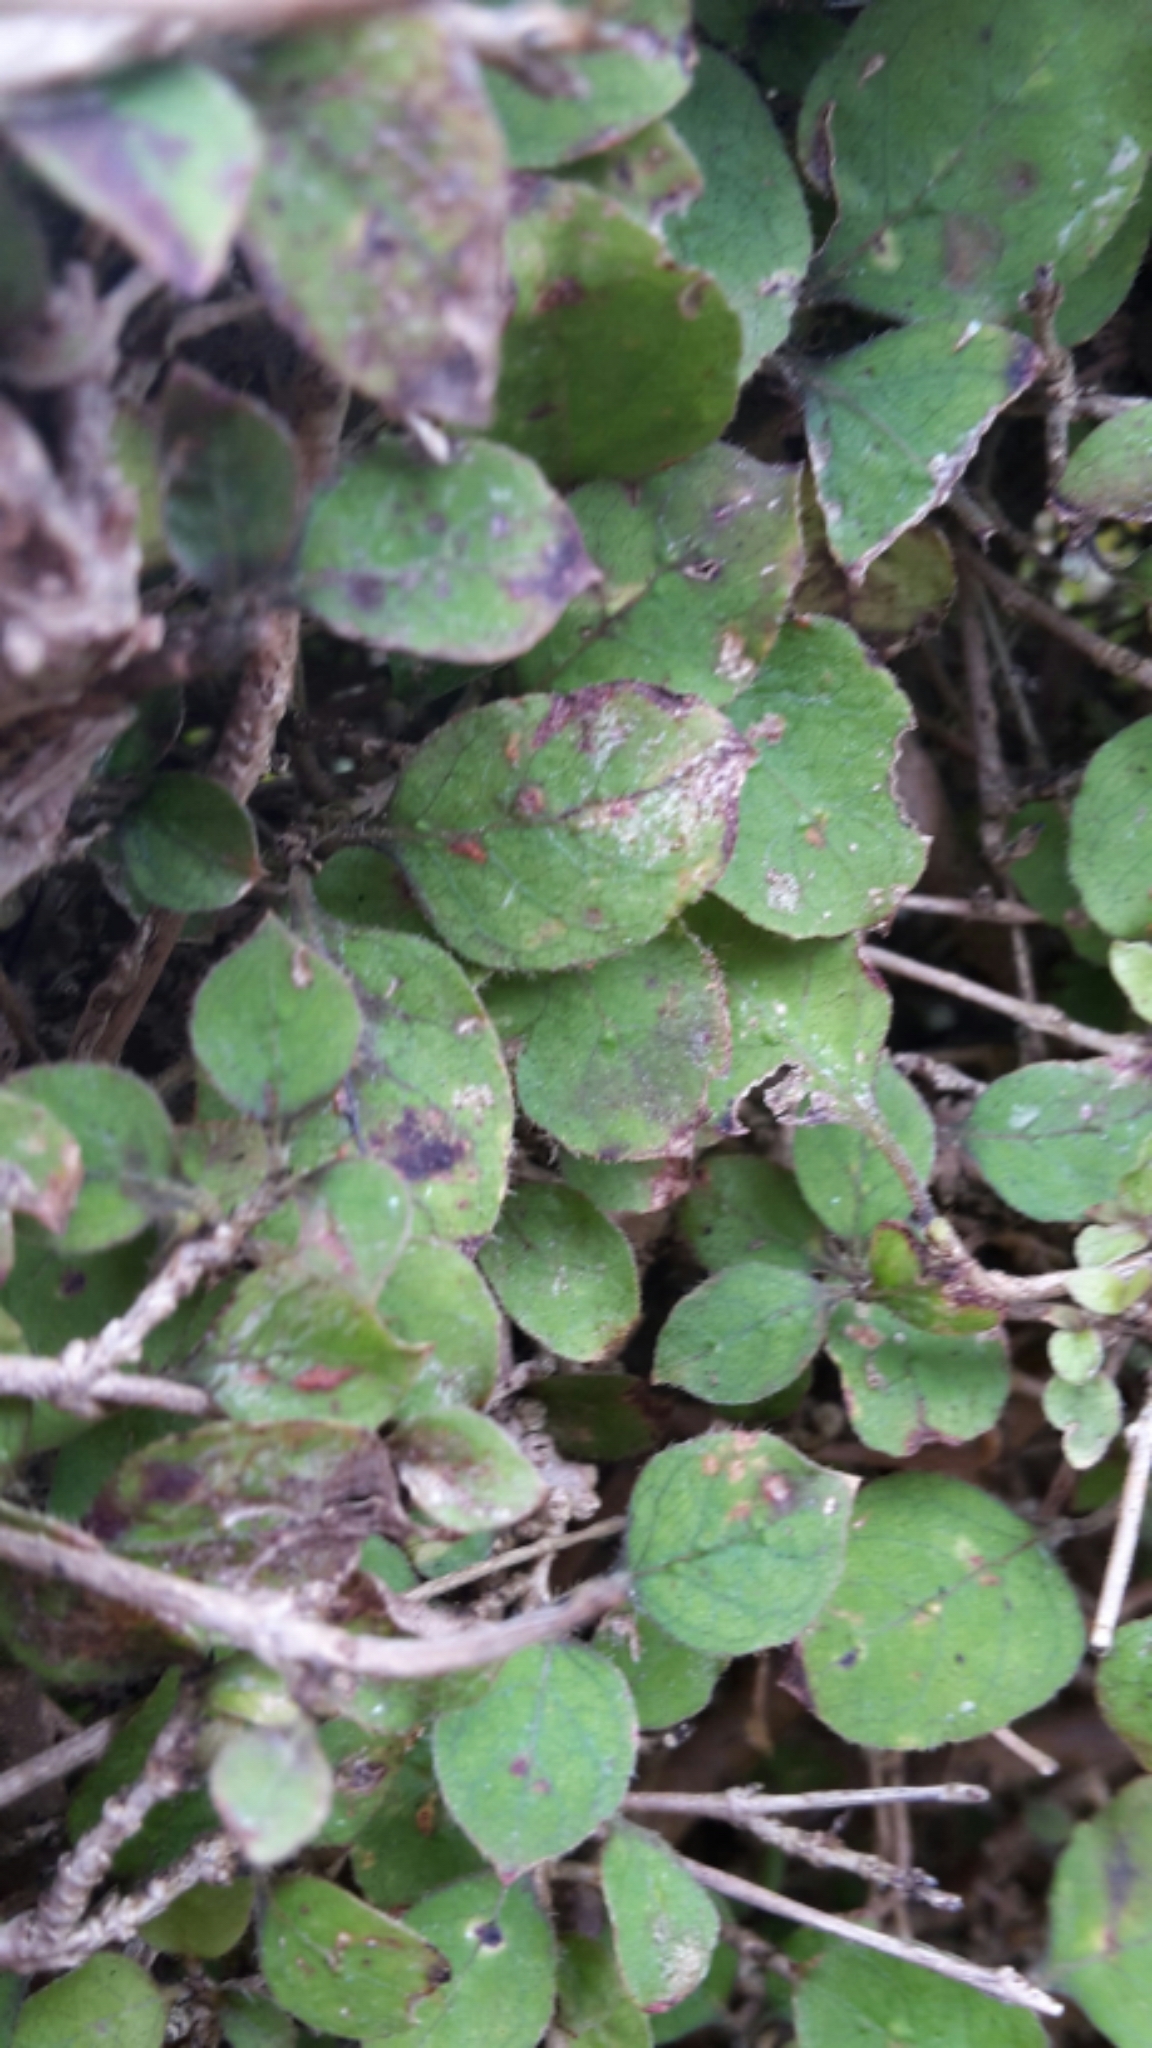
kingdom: Plantae
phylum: Tracheophyta
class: Magnoliopsida
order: Gentianales
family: Rubiaceae
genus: Coprosma
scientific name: Coprosma rotundifolia
